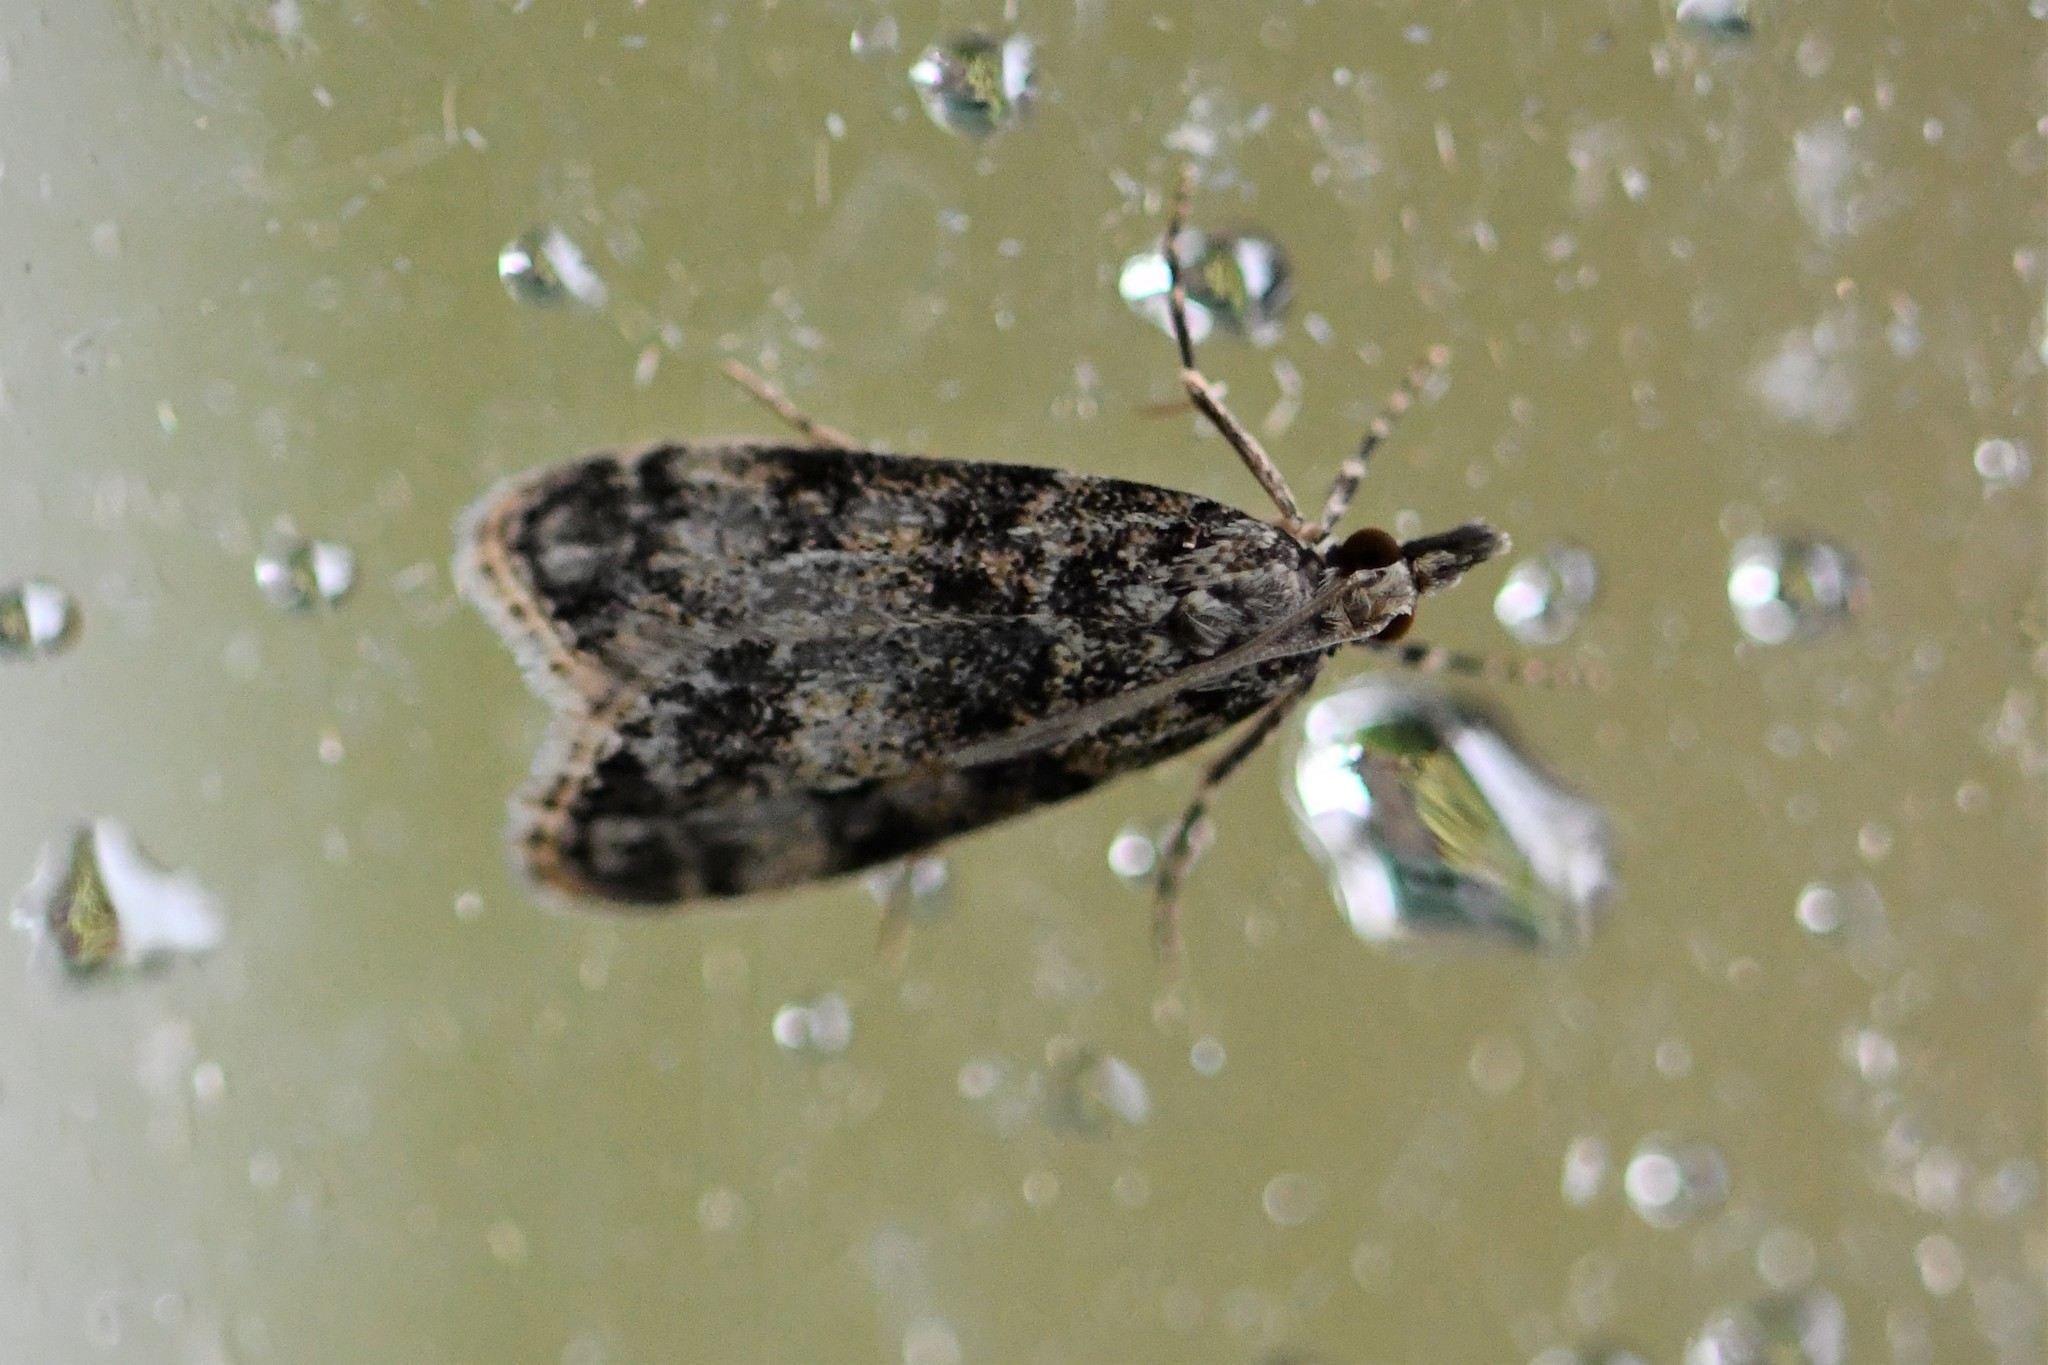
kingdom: Animalia
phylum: Arthropoda
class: Insecta
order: Lepidoptera
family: Crambidae
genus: Eudonia
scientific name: Eudonia mercurella
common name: Small grey
